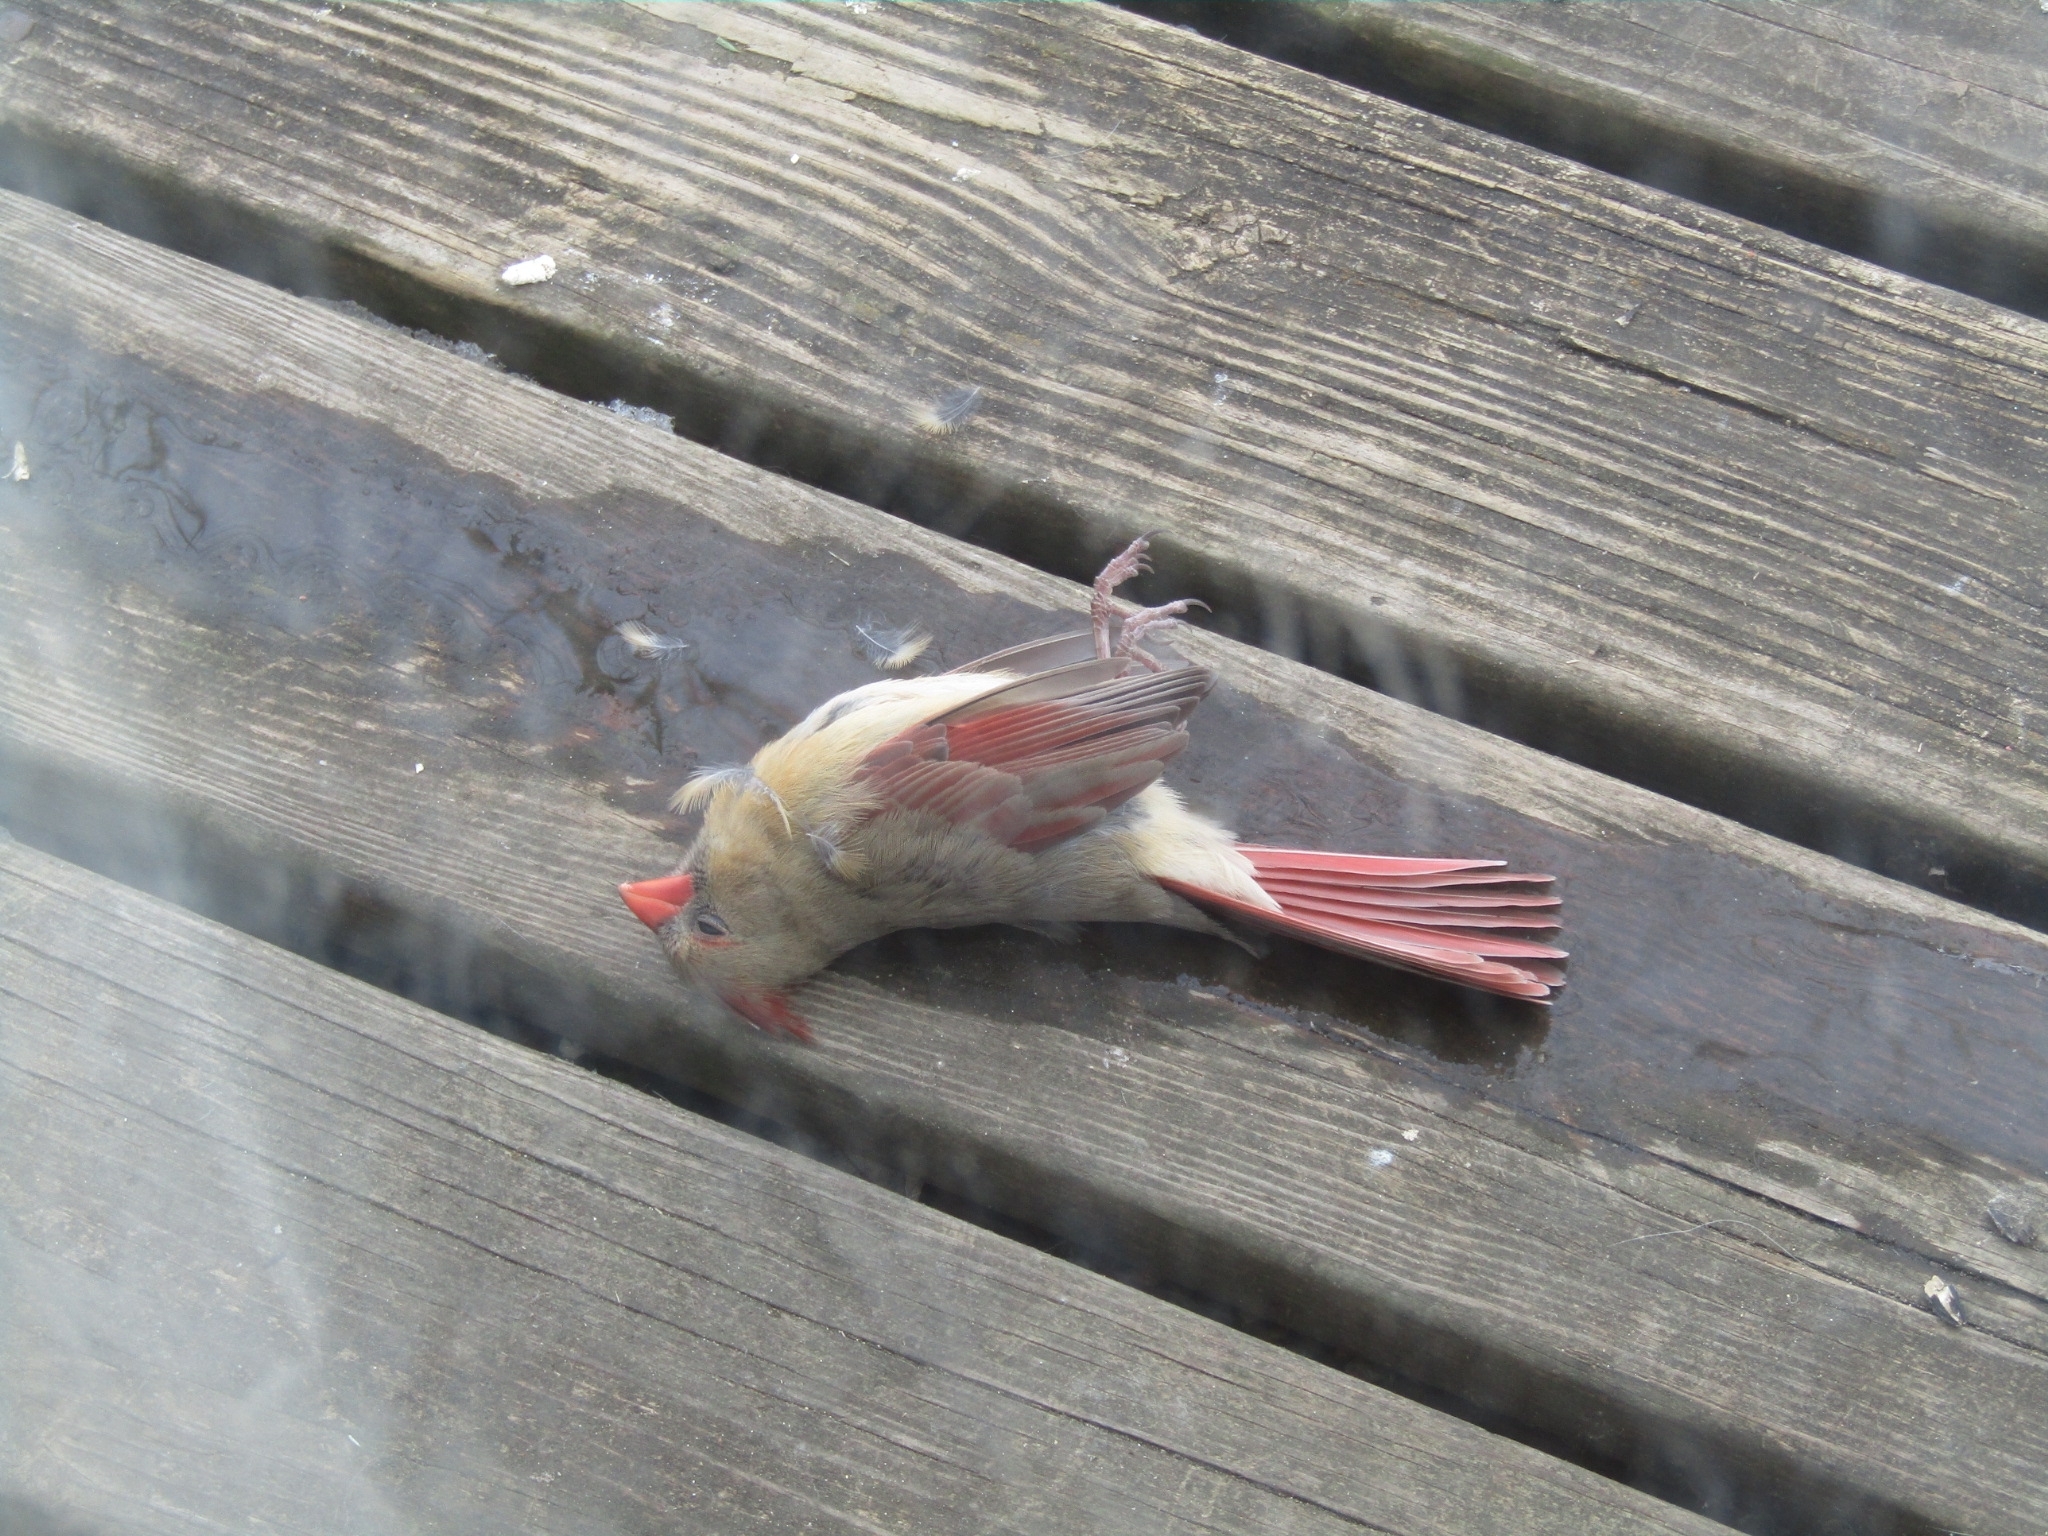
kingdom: Animalia
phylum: Chordata
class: Aves
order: Passeriformes
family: Cardinalidae
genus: Cardinalis
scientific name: Cardinalis cardinalis
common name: Northern cardinal
